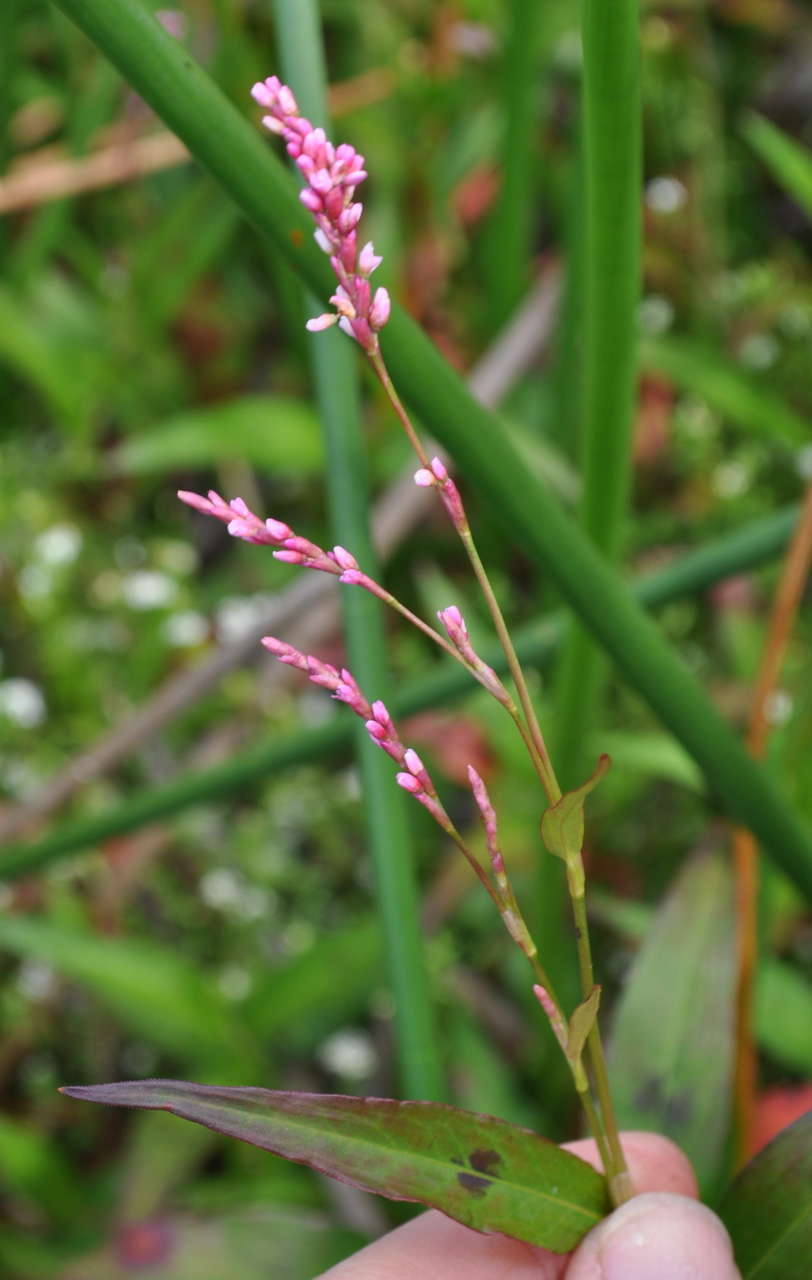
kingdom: Plantae
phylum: Tracheophyta
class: Magnoliopsida
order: Caryophyllales
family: Polygonaceae
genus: Persicaria
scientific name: Persicaria decipiens
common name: Willow-weed
